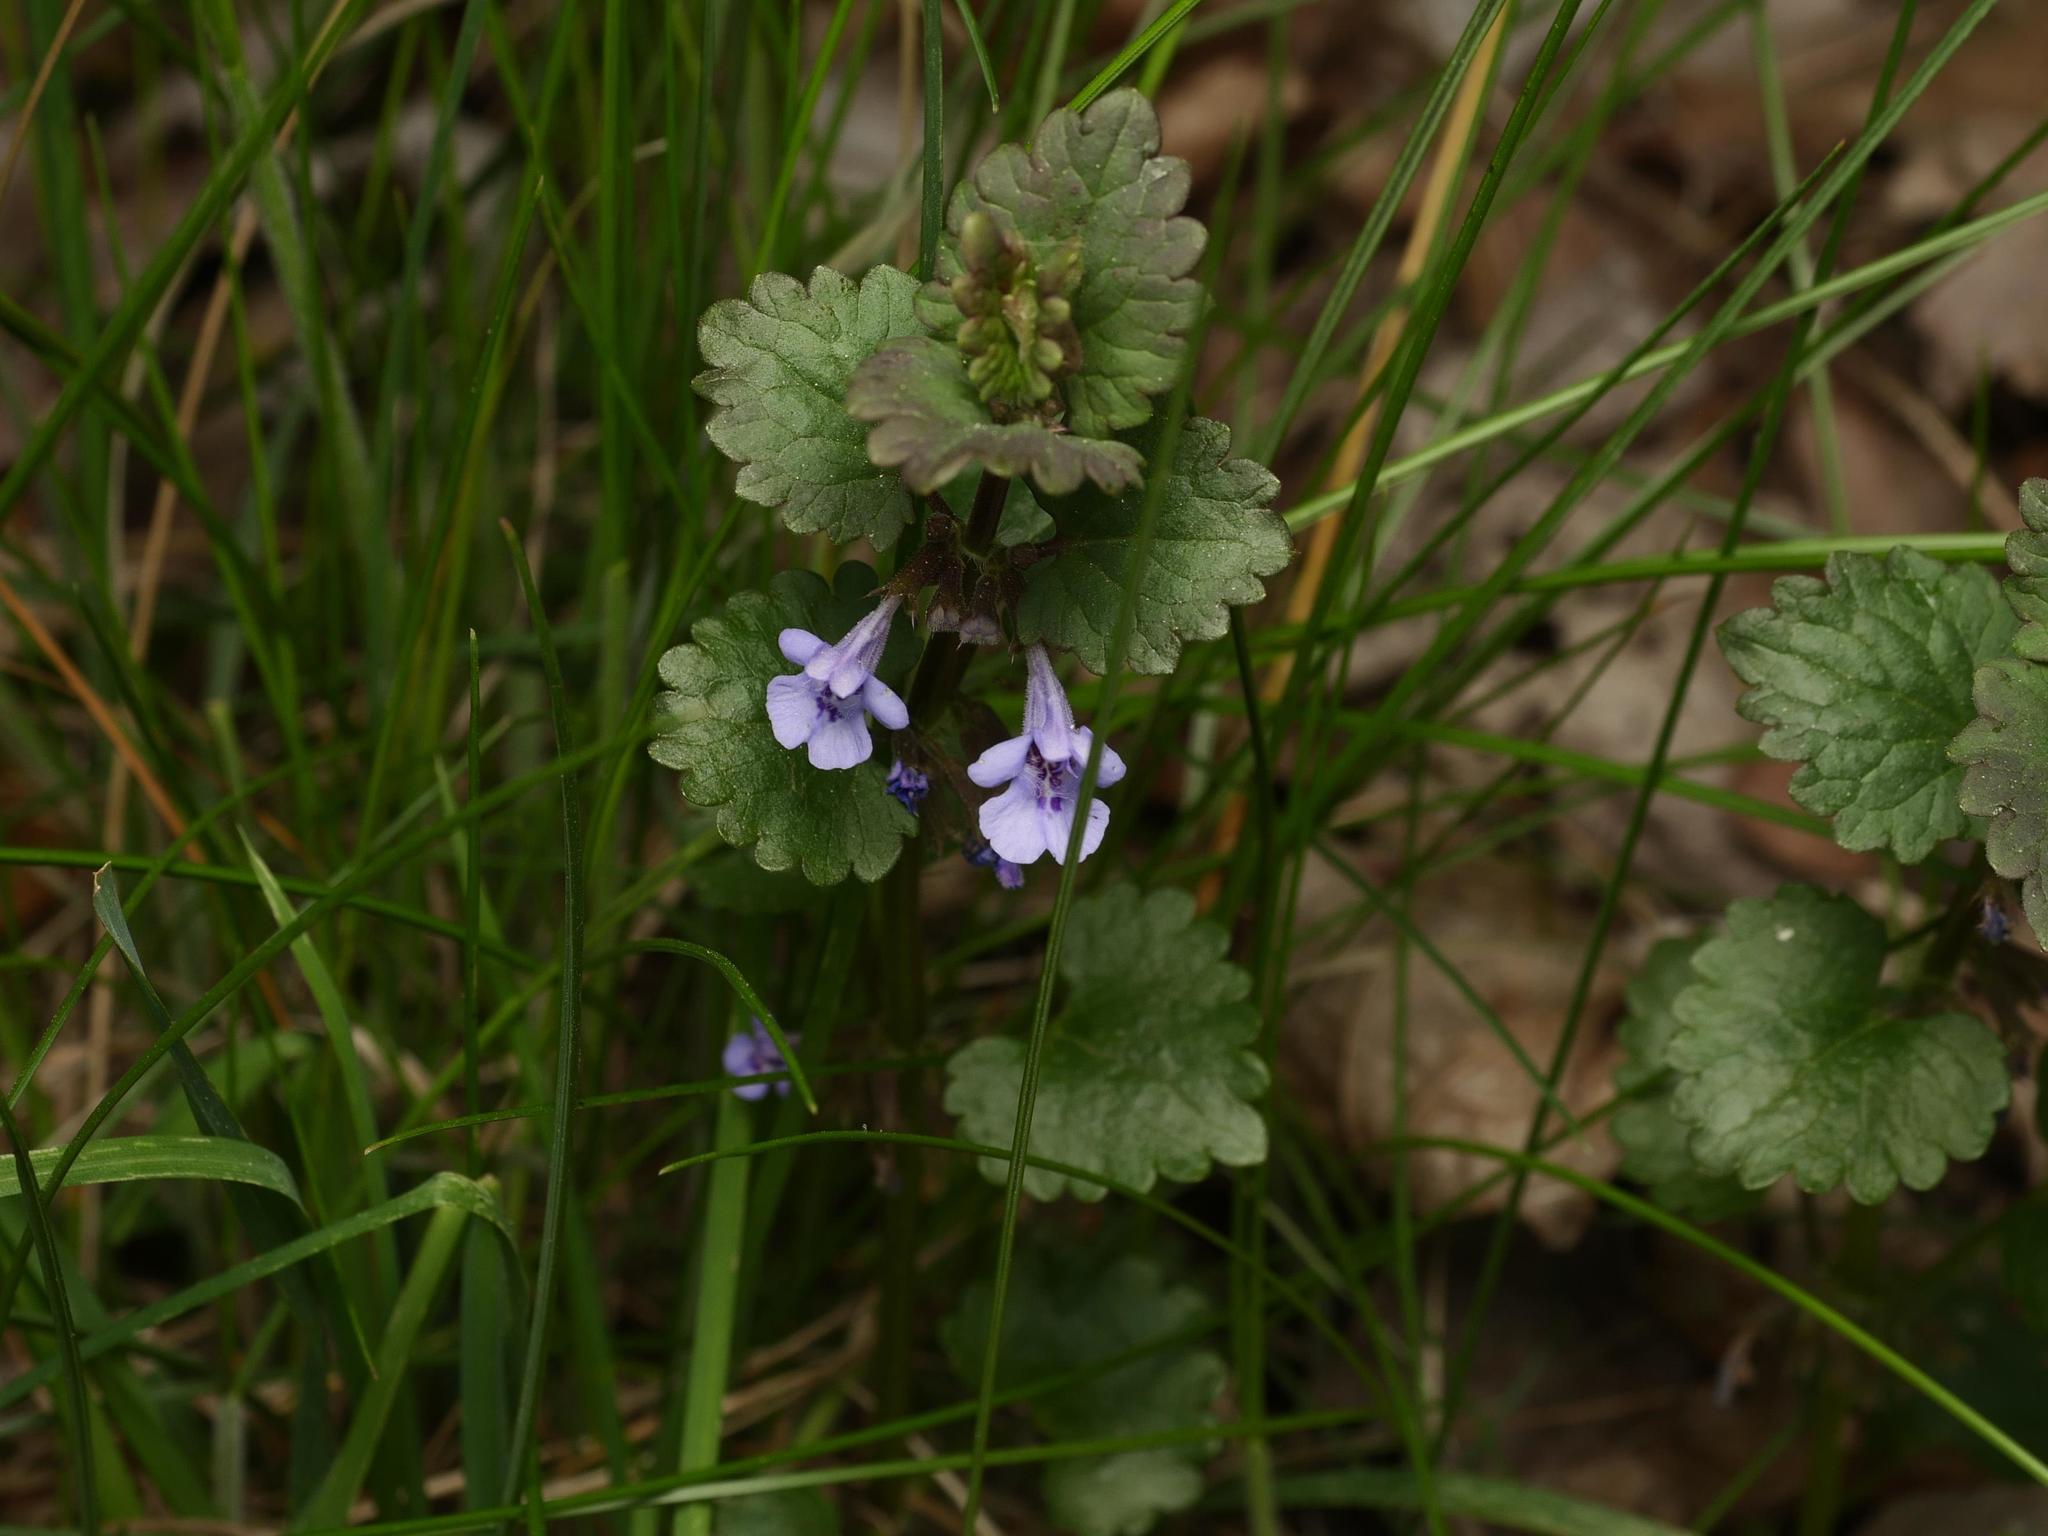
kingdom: Plantae
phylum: Tracheophyta
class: Magnoliopsida
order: Lamiales
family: Lamiaceae
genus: Glechoma
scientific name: Glechoma hederacea
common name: Ground ivy
